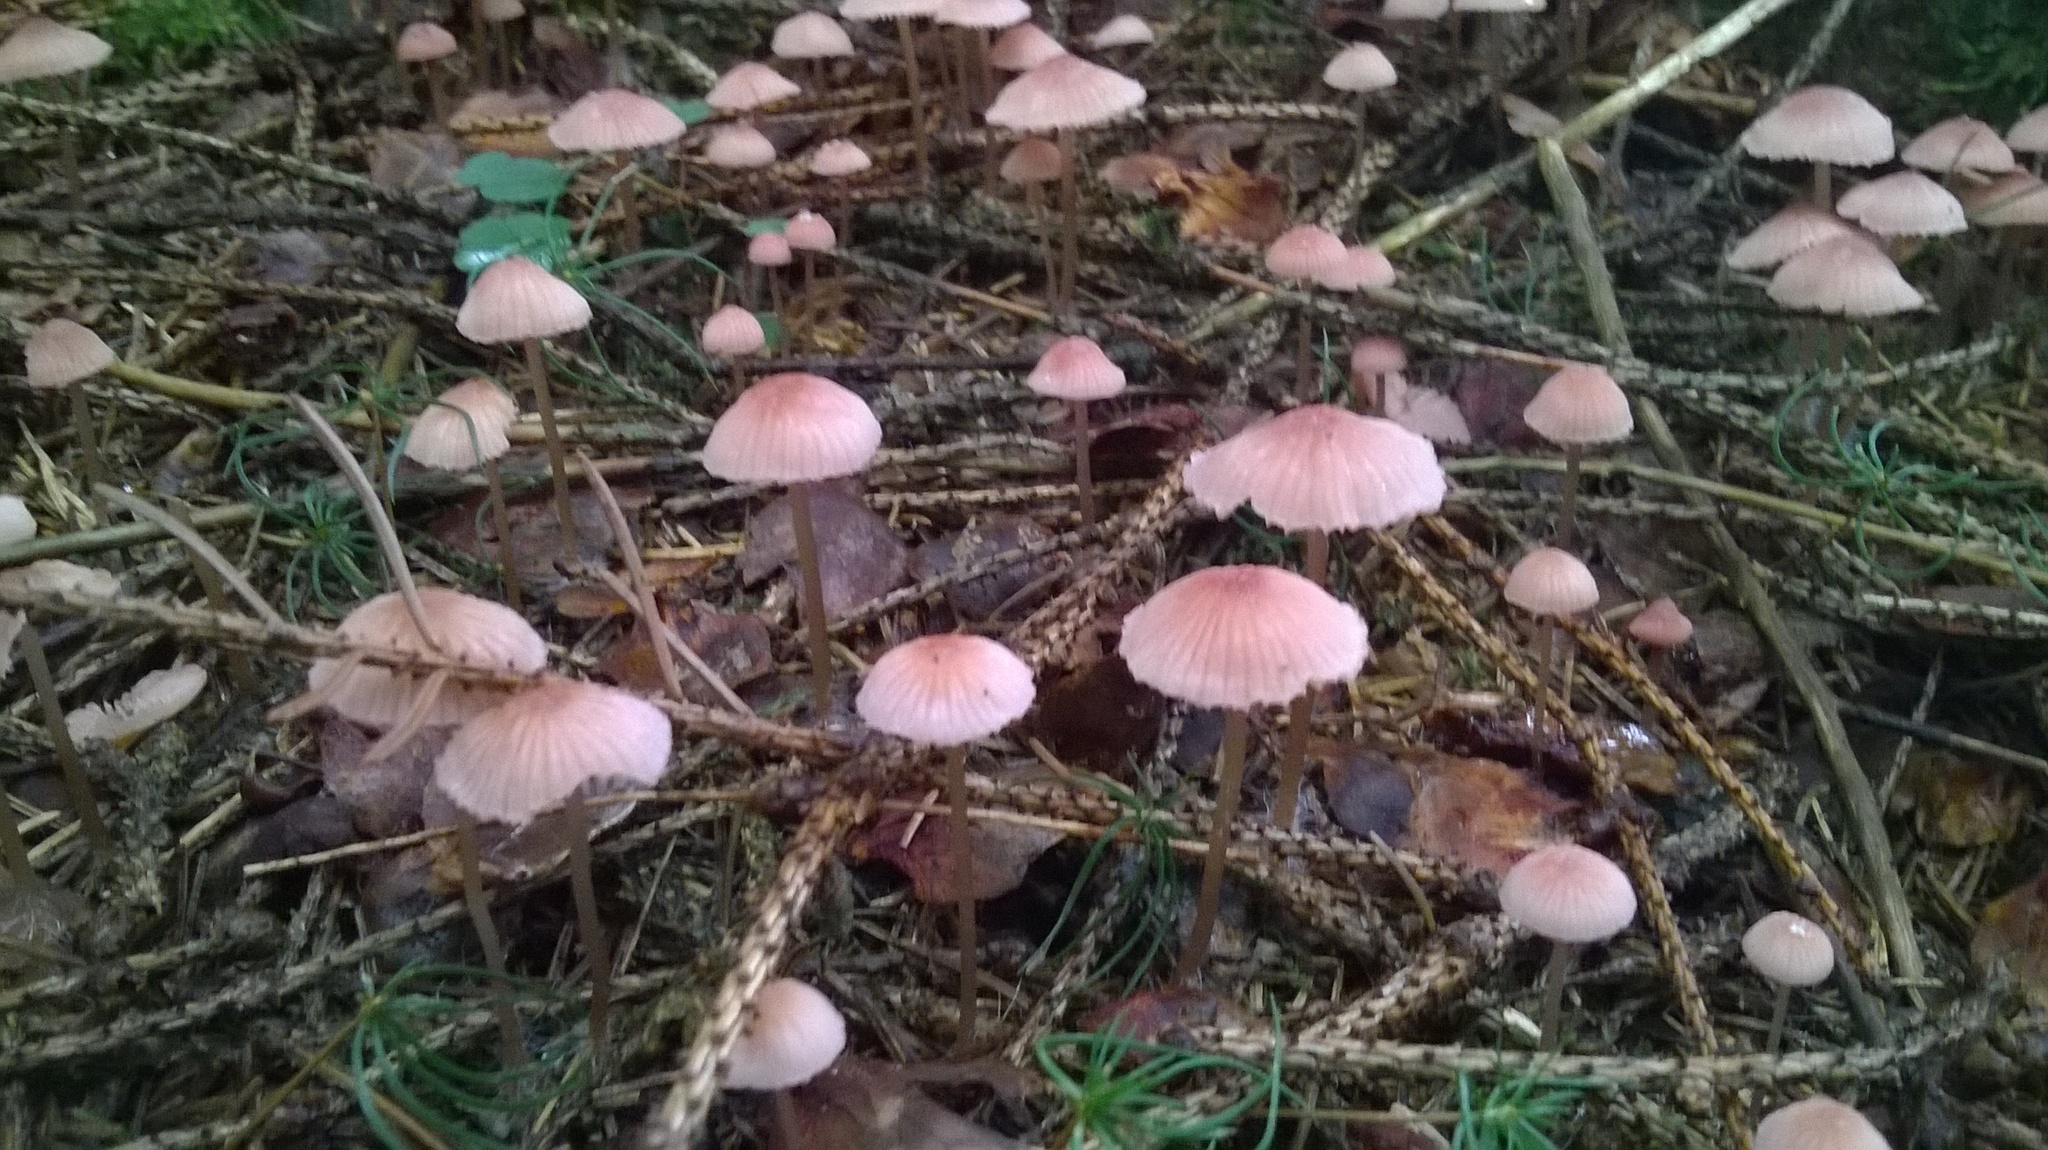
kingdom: Fungi
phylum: Basidiomycota
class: Agaricomycetes
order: Agaricales
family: Mycenaceae
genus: Mycena
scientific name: Mycena rosella
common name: Pink bonnet
